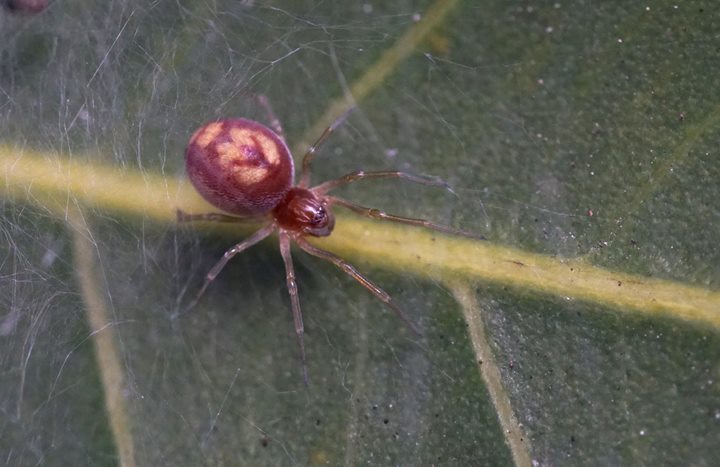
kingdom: Animalia
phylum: Arthropoda
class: Arachnida
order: Araneae
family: Dictynidae
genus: Emblyna
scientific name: Emblyna florens
